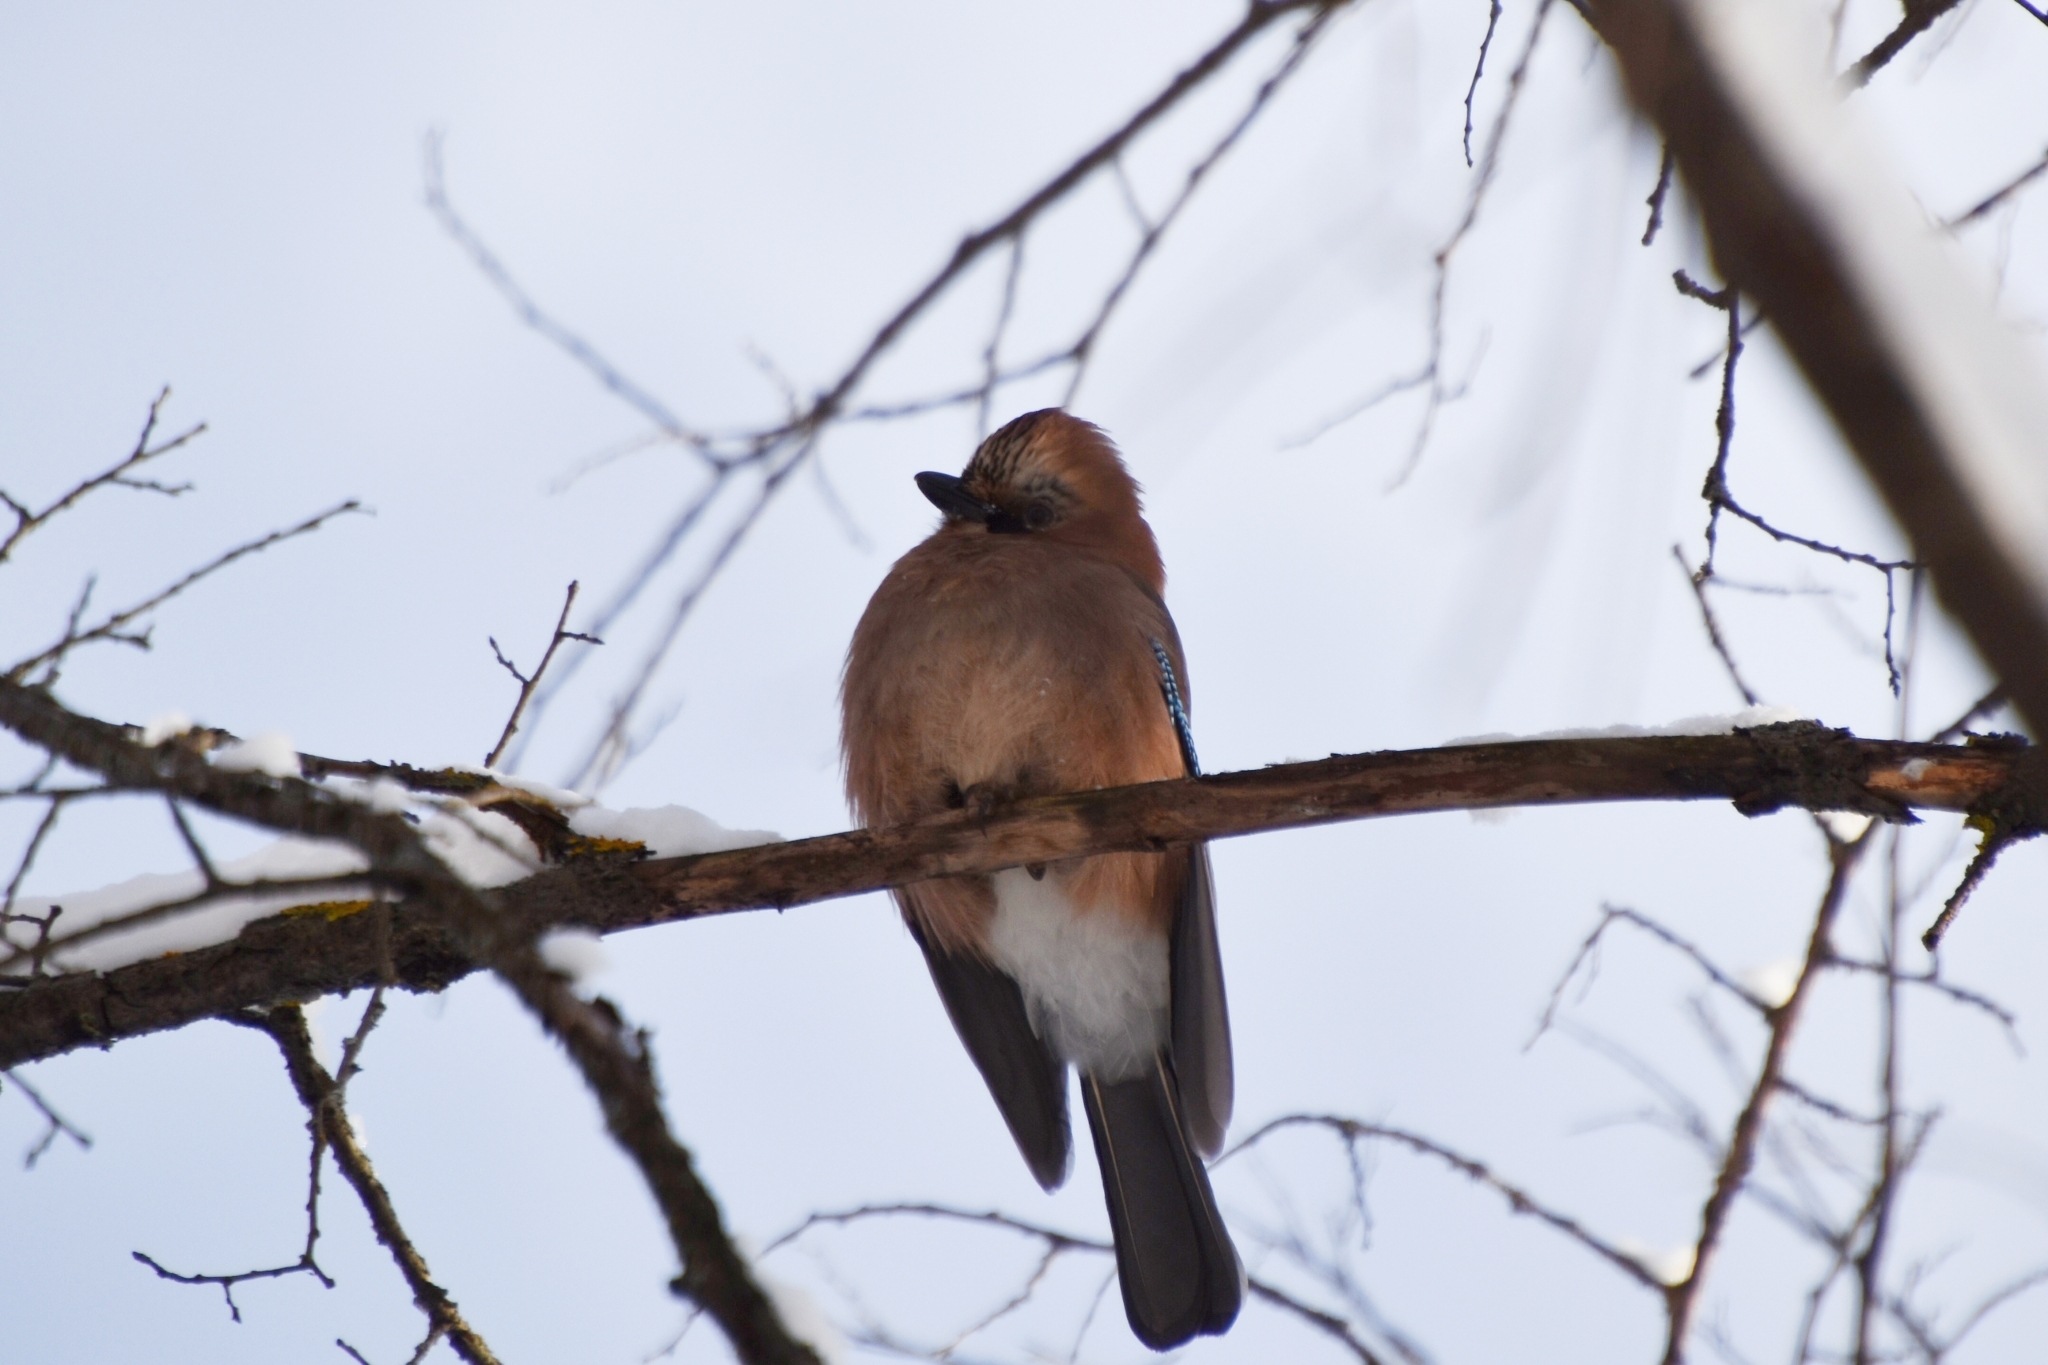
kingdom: Animalia
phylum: Chordata
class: Aves
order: Passeriformes
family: Corvidae
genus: Garrulus
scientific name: Garrulus glandarius
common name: Eurasian jay
